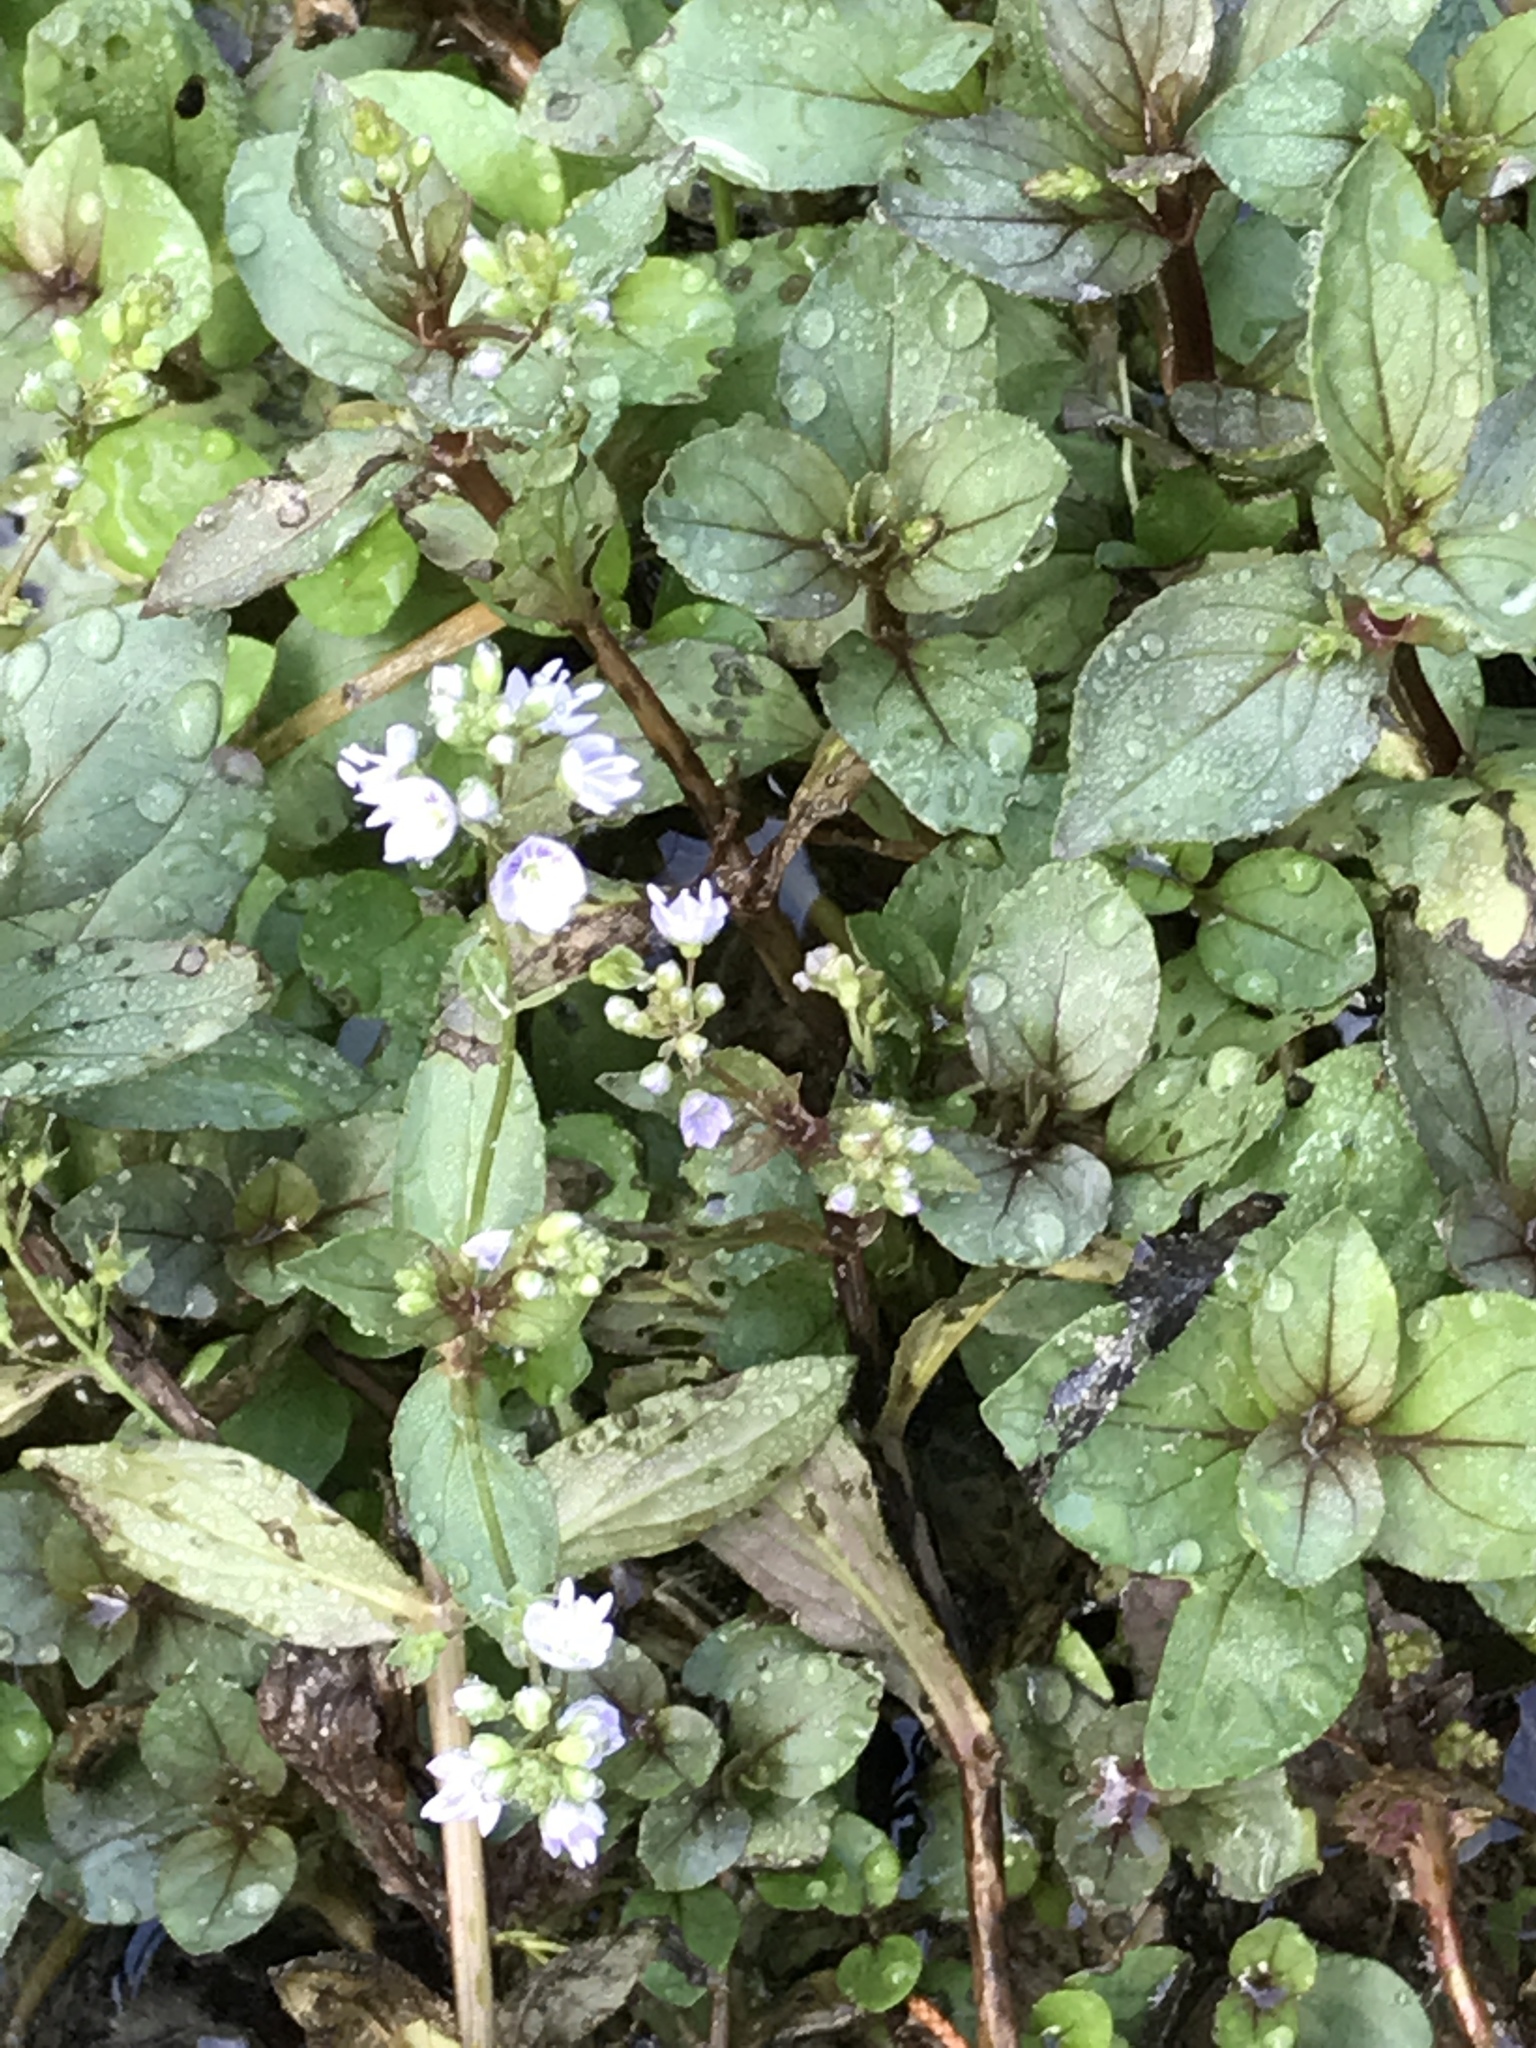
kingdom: Plantae
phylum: Tracheophyta
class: Magnoliopsida
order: Lamiales
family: Plantaginaceae
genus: Veronica
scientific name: Veronica anagallis-aquatica
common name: Water speedwell
